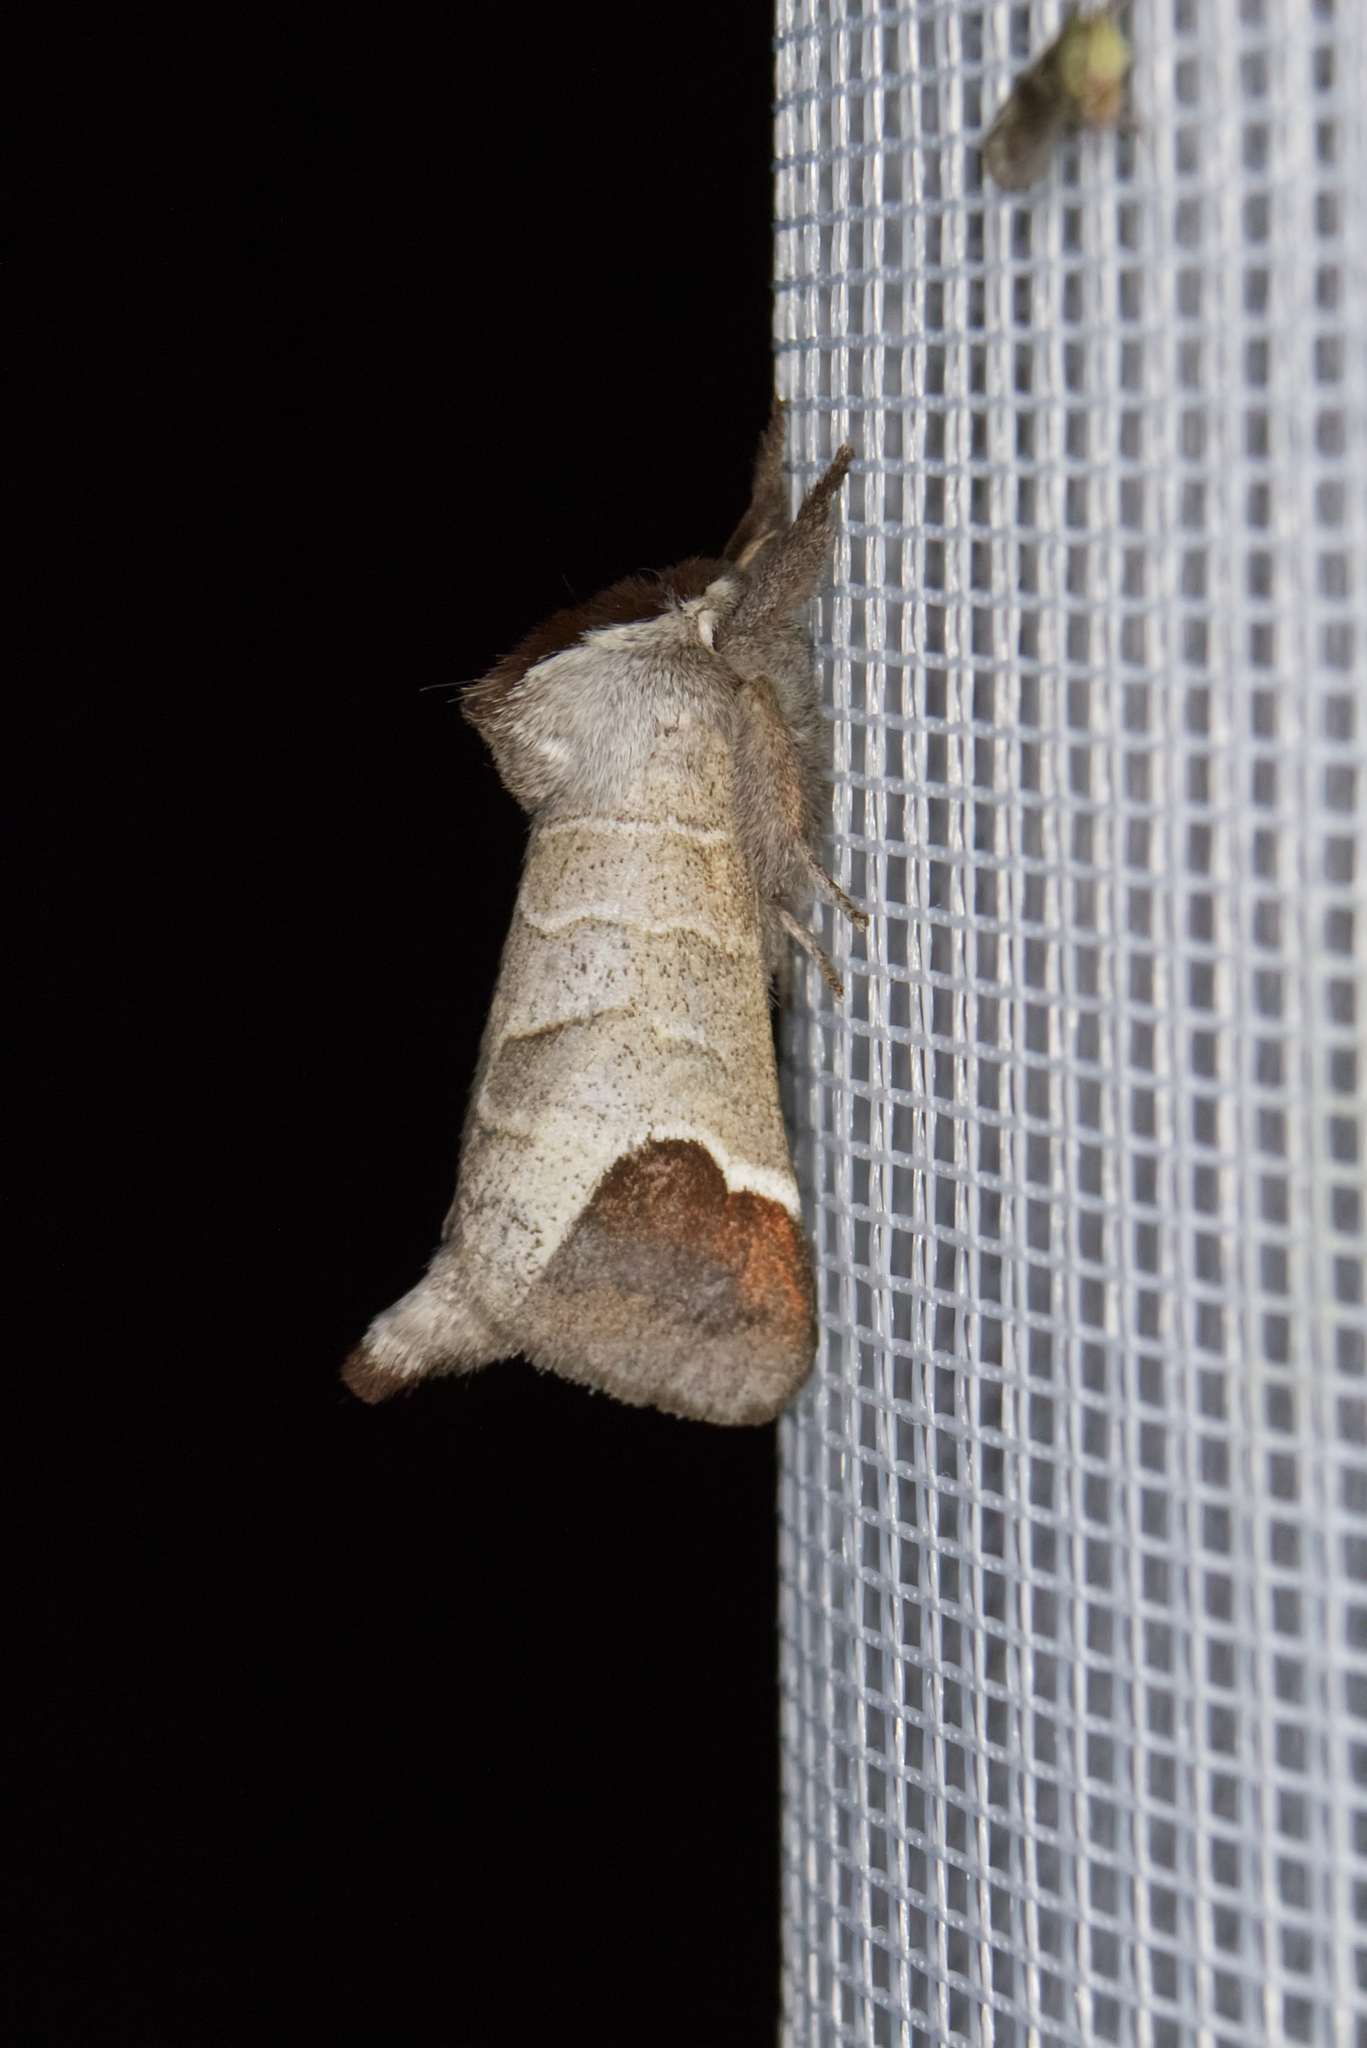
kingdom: Animalia
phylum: Arthropoda
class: Insecta
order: Lepidoptera
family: Notodontidae
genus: Clostera
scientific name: Clostera curtula
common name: Chocolate-tip
